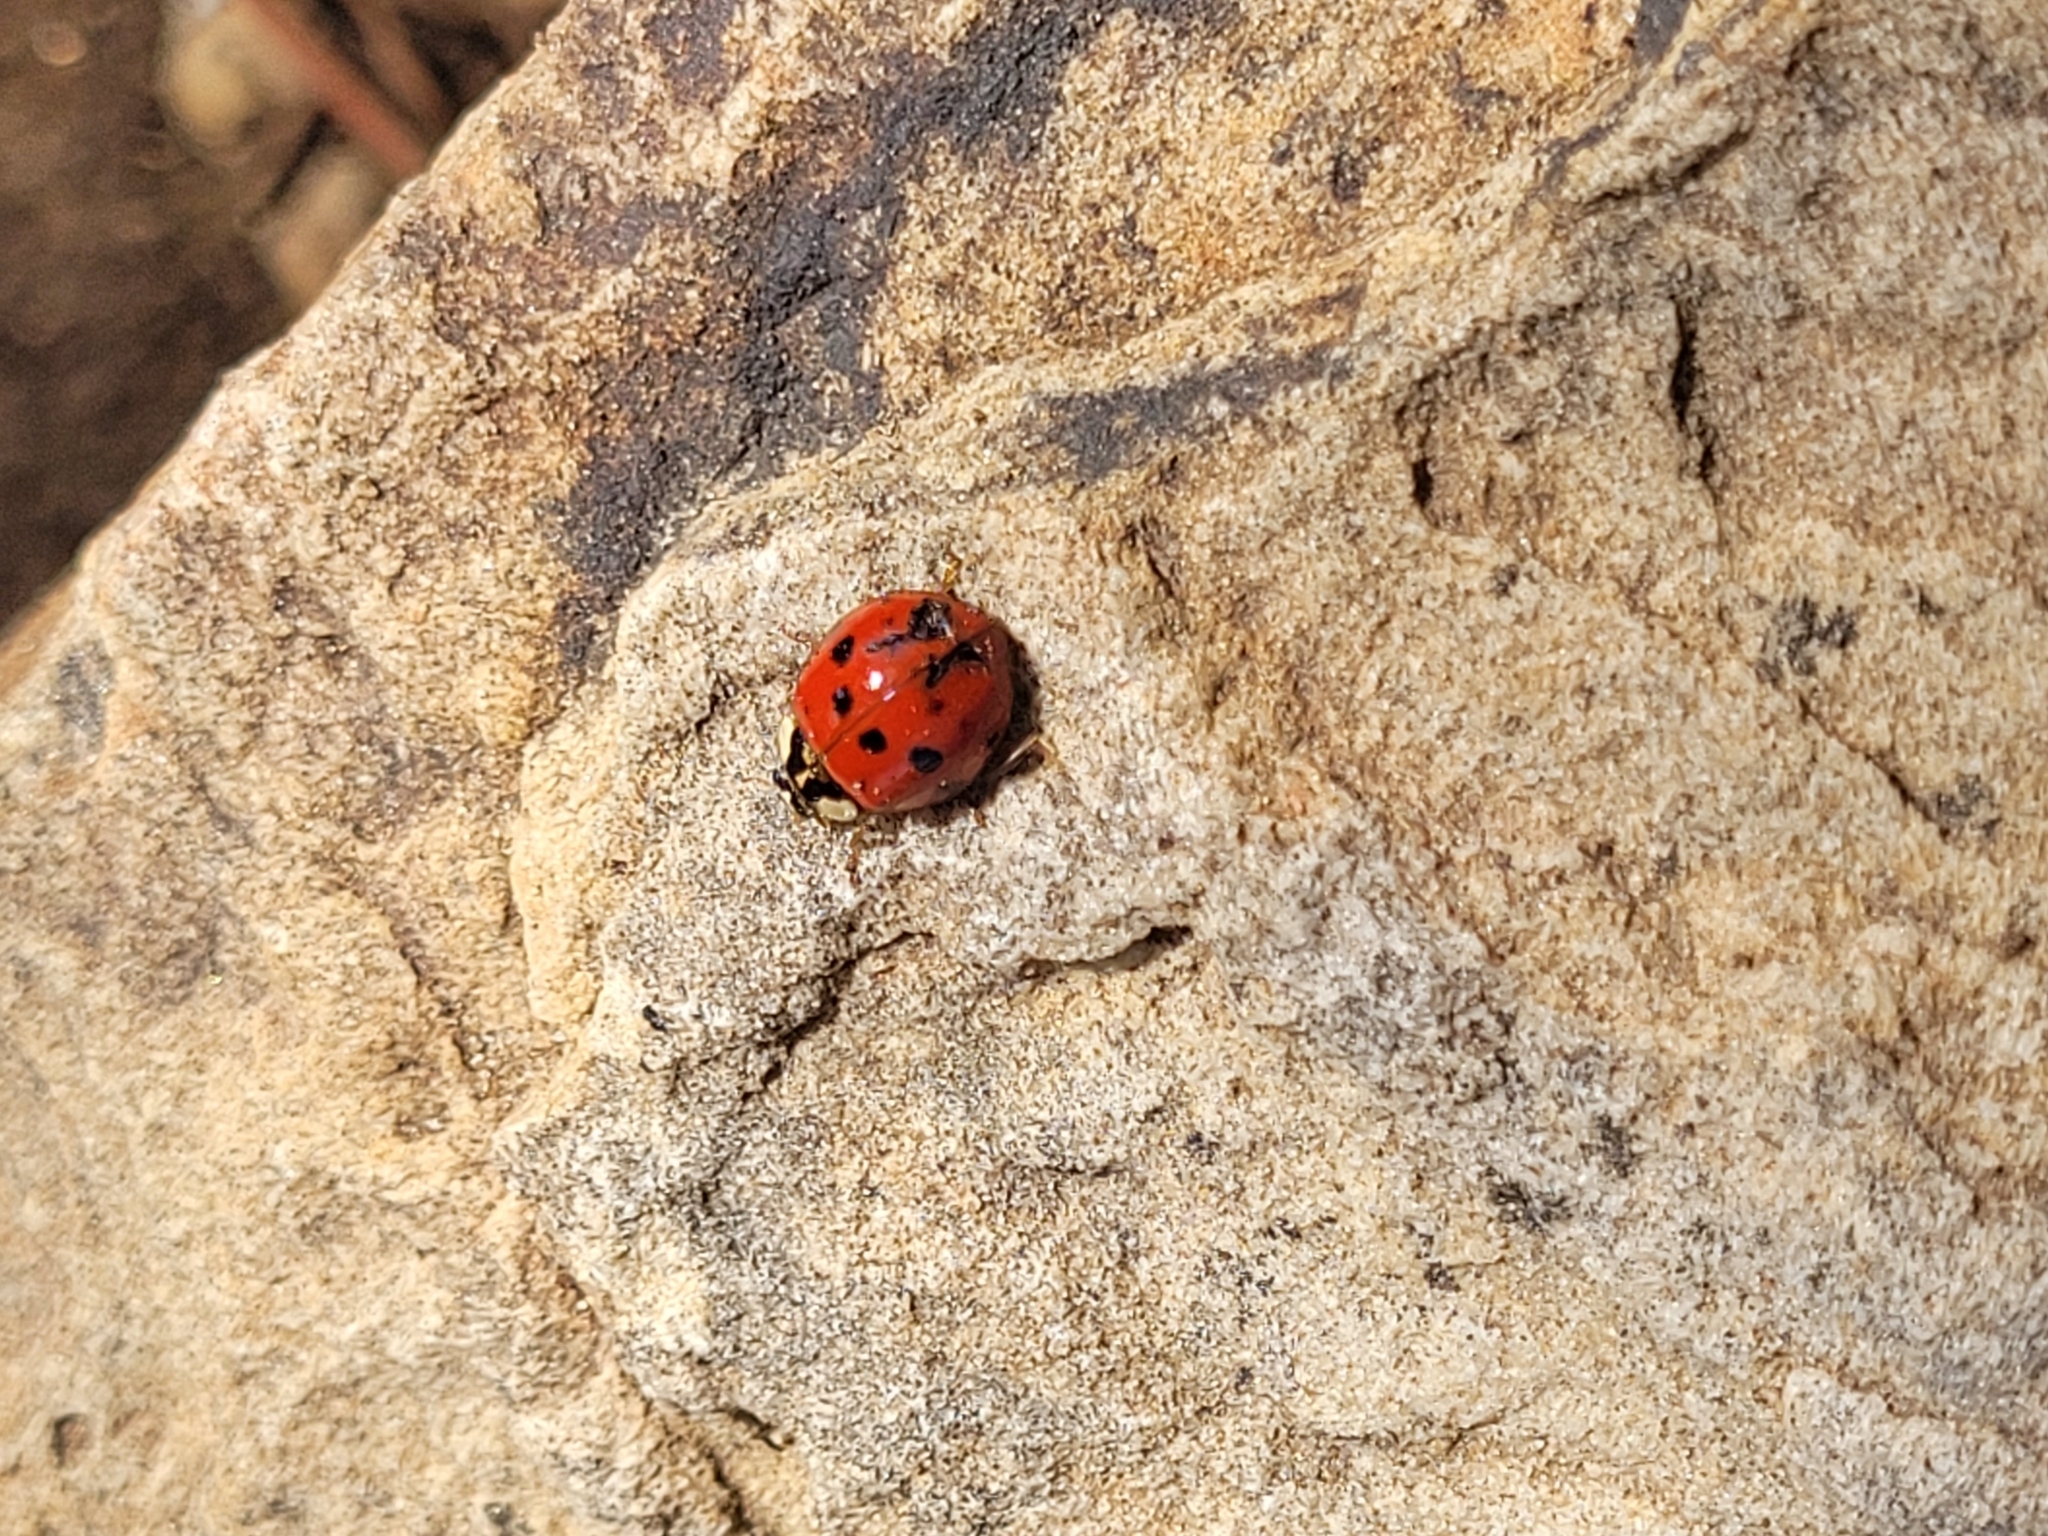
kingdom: Animalia
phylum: Arthropoda
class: Insecta
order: Coleoptera
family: Coccinellidae
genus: Harmonia
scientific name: Harmonia axyridis
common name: Harlequin ladybird
